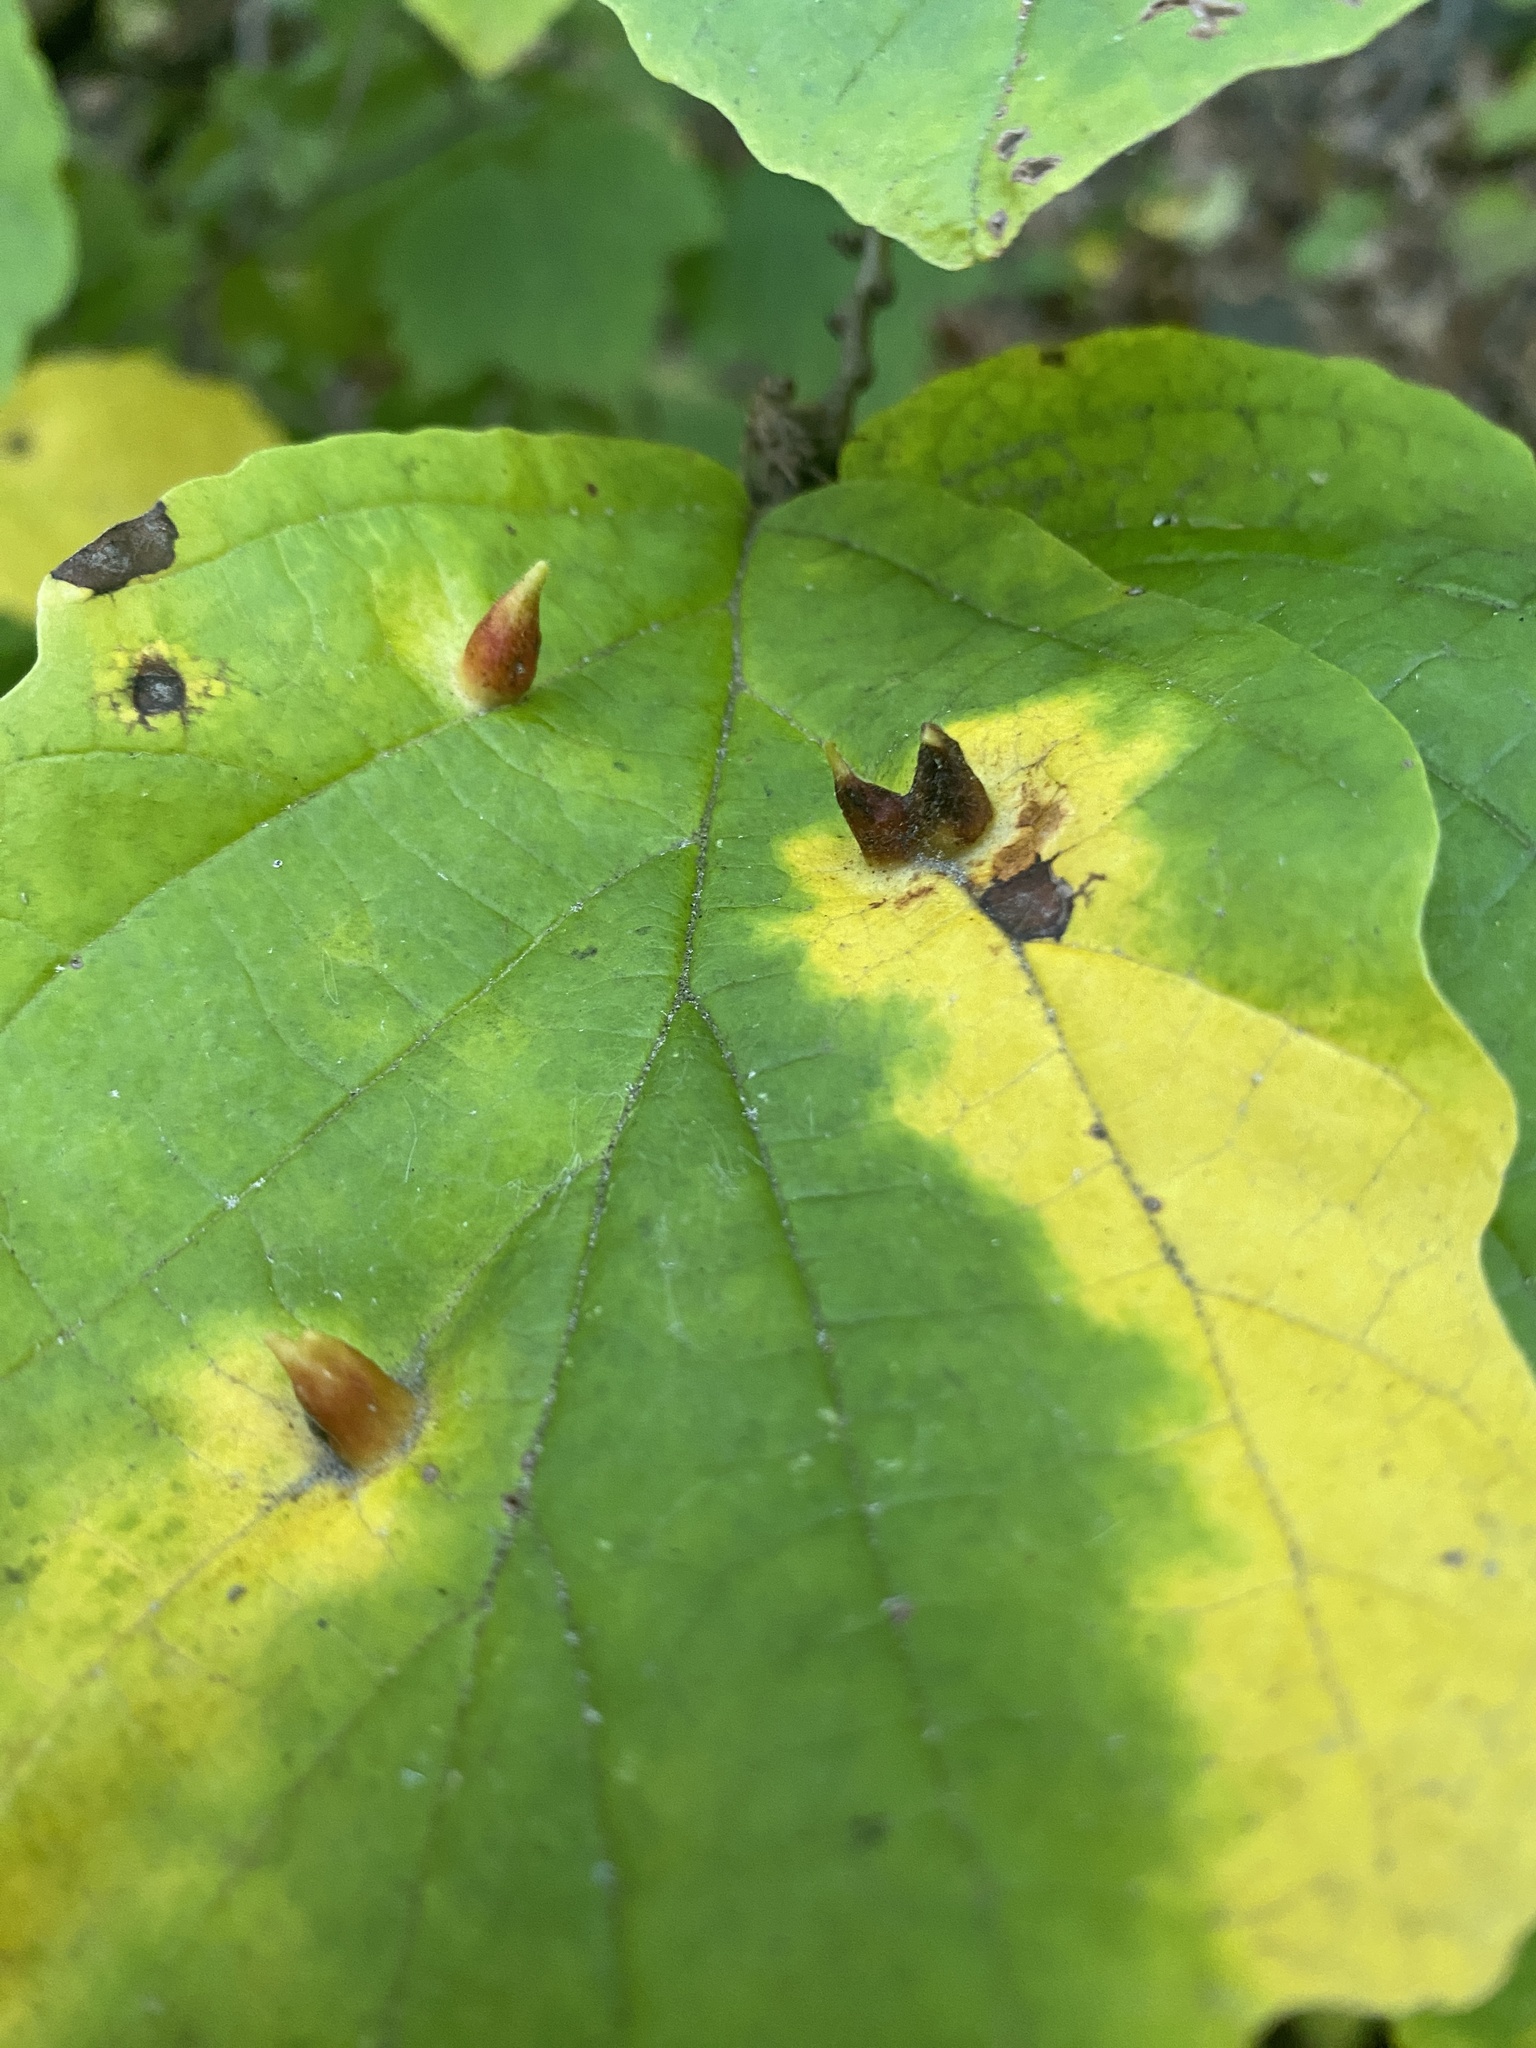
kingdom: Animalia
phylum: Arthropoda
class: Insecta
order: Hemiptera
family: Aphididae
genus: Hormaphis
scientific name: Hormaphis hamamelidis
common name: Witch-hazel cone gall aphid
